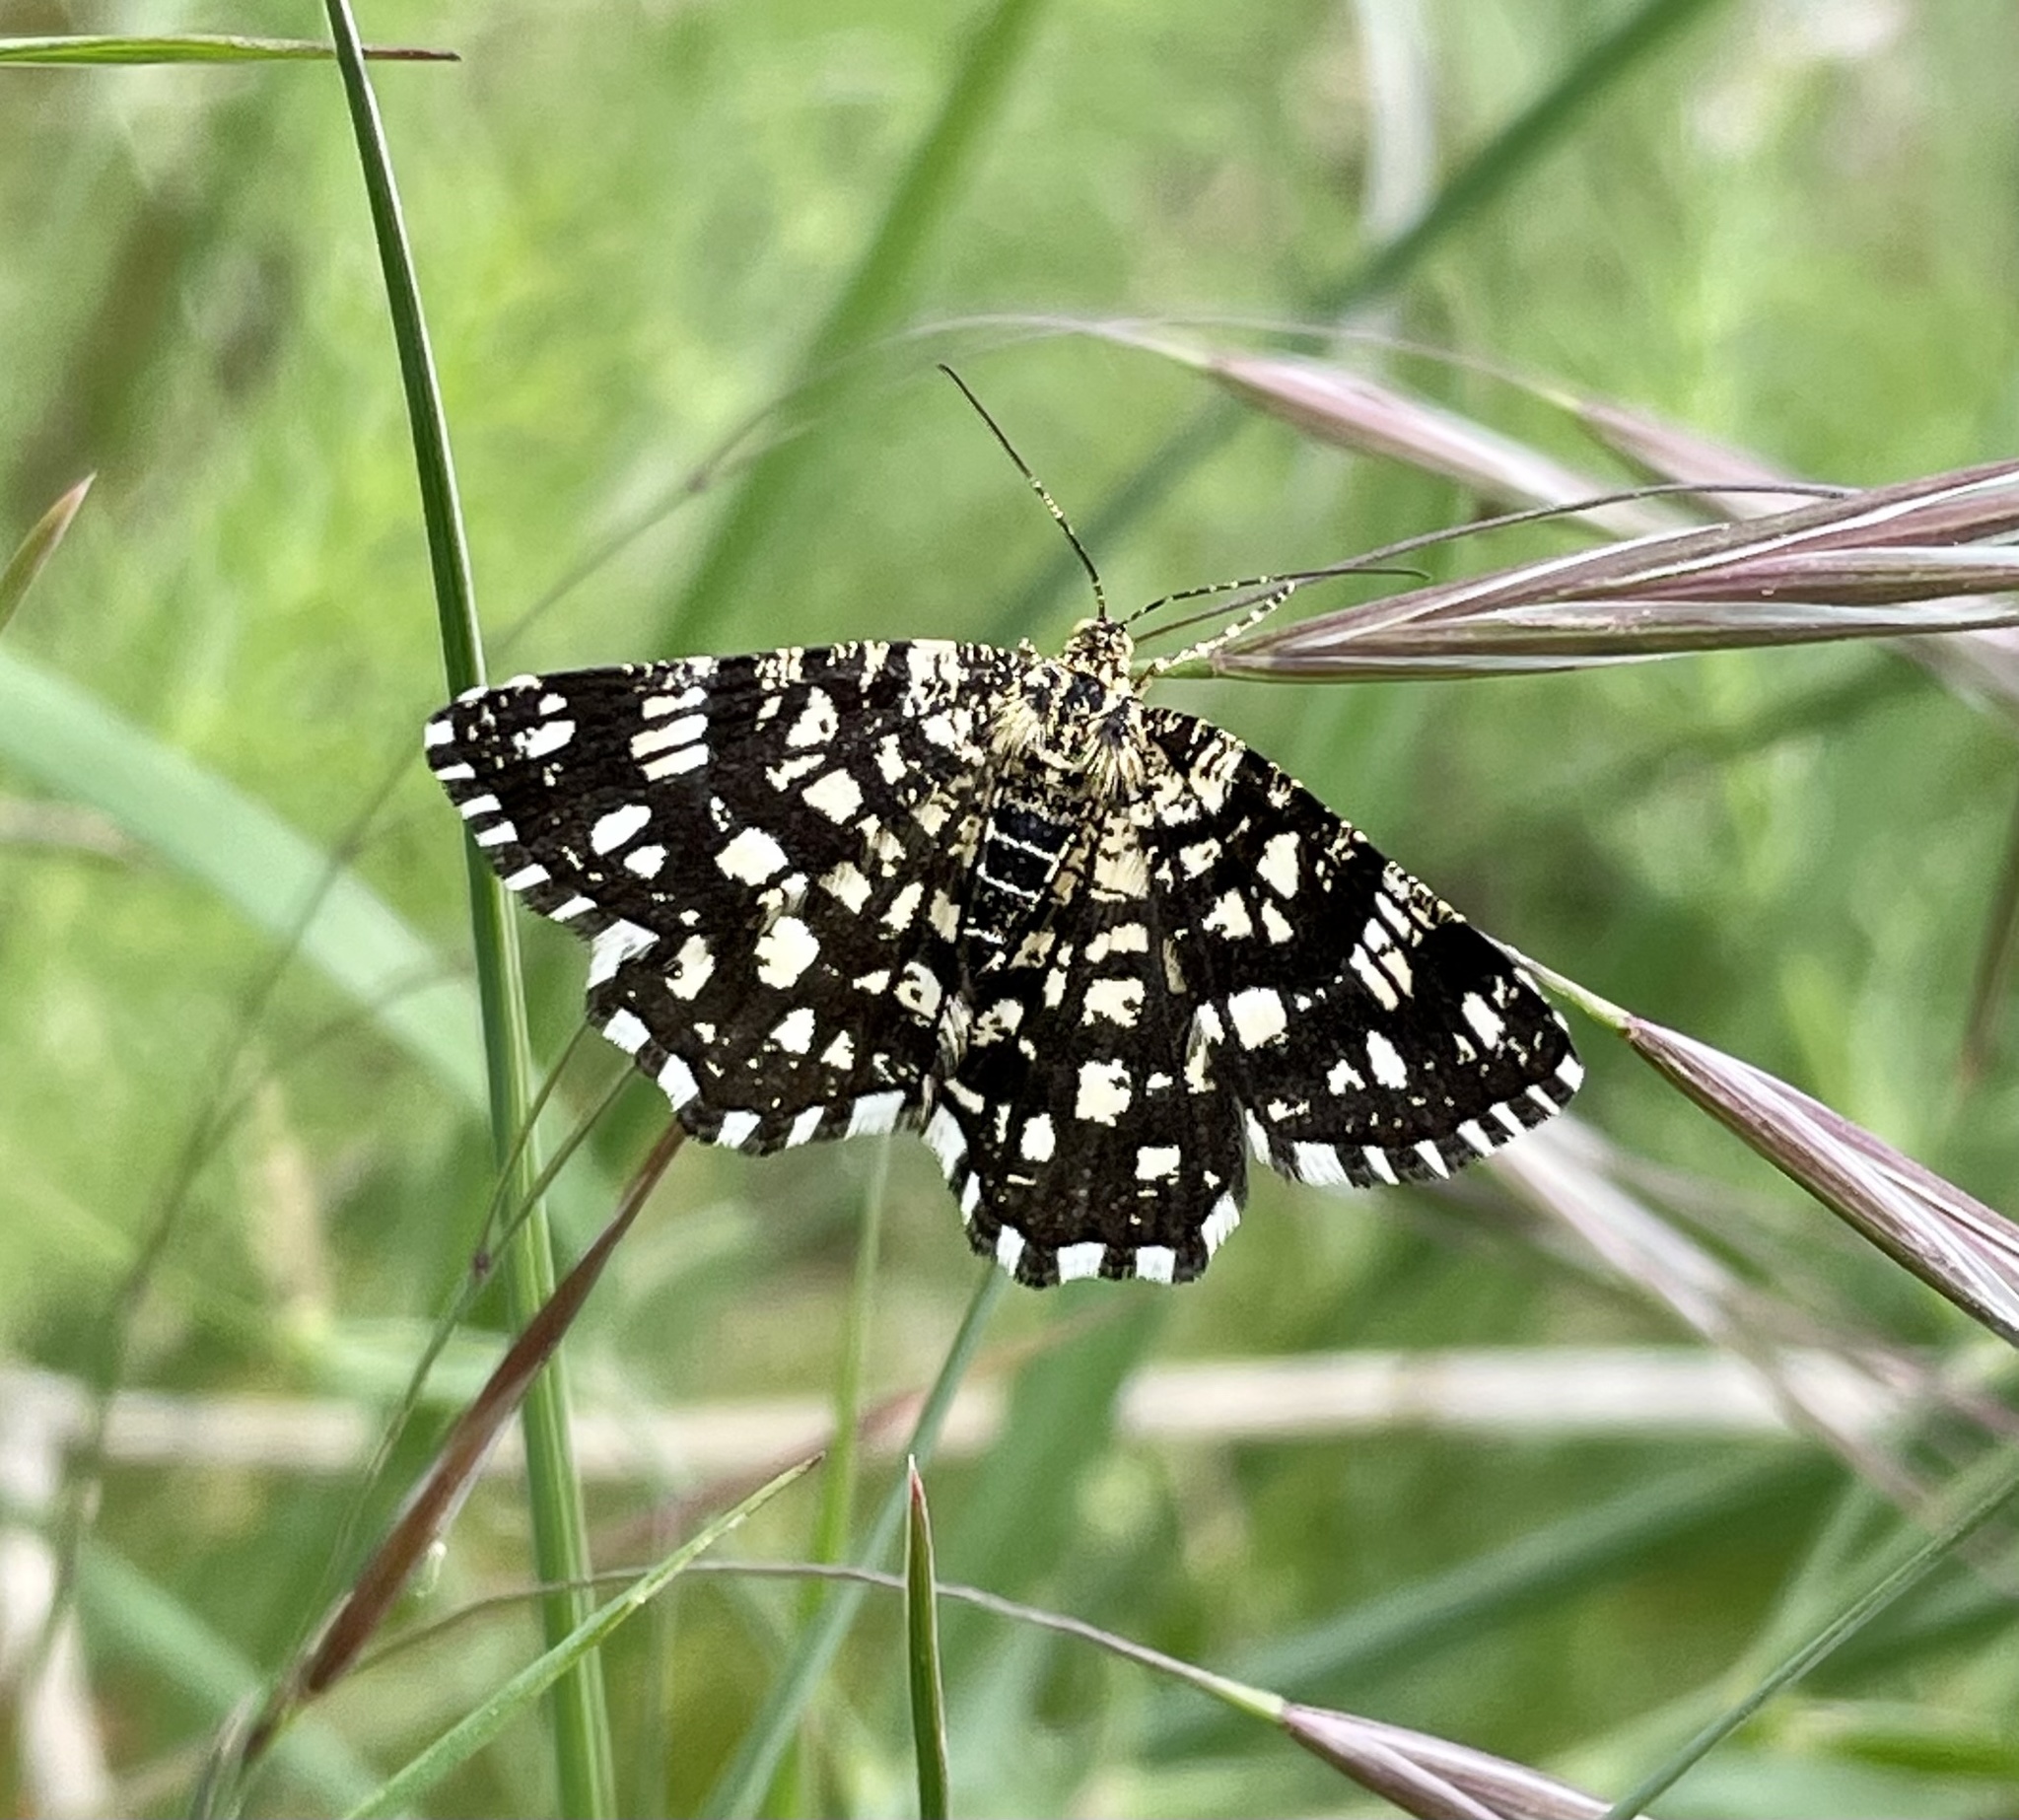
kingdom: Animalia
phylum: Arthropoda
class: Insecta
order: Lepidoptera
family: Geometridae
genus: Chiasmia
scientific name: Chiasmia clathrata
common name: Latticed heath
